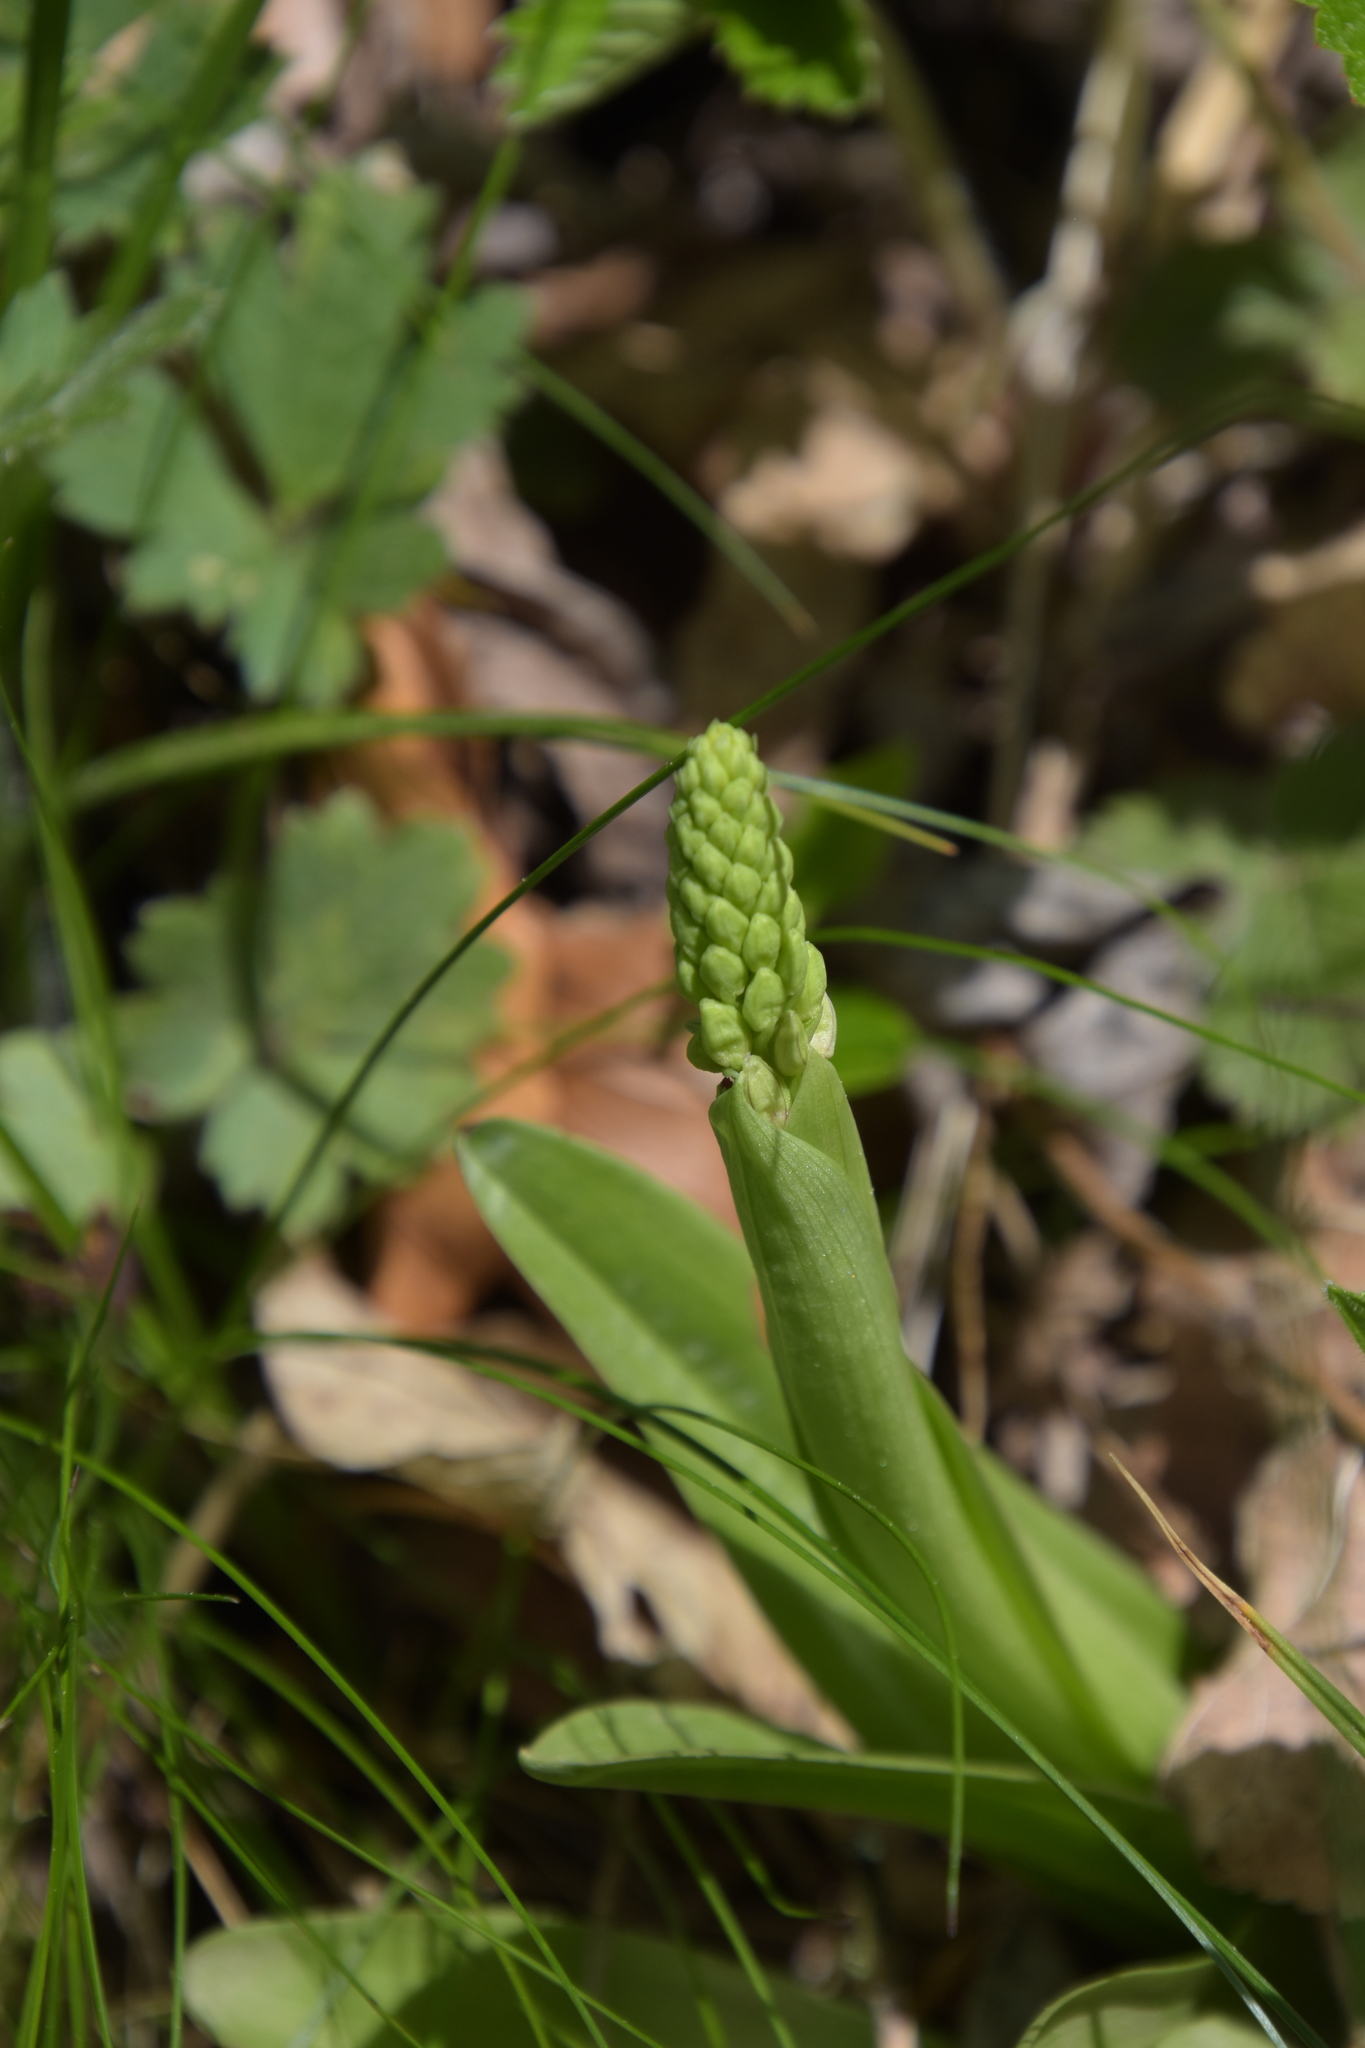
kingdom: Plantae
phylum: Tracheophyta
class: Liliopsida
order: Asparagales
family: Orchidaceae
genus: Orchis
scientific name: Orchis anthropophora
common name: Man orchid
